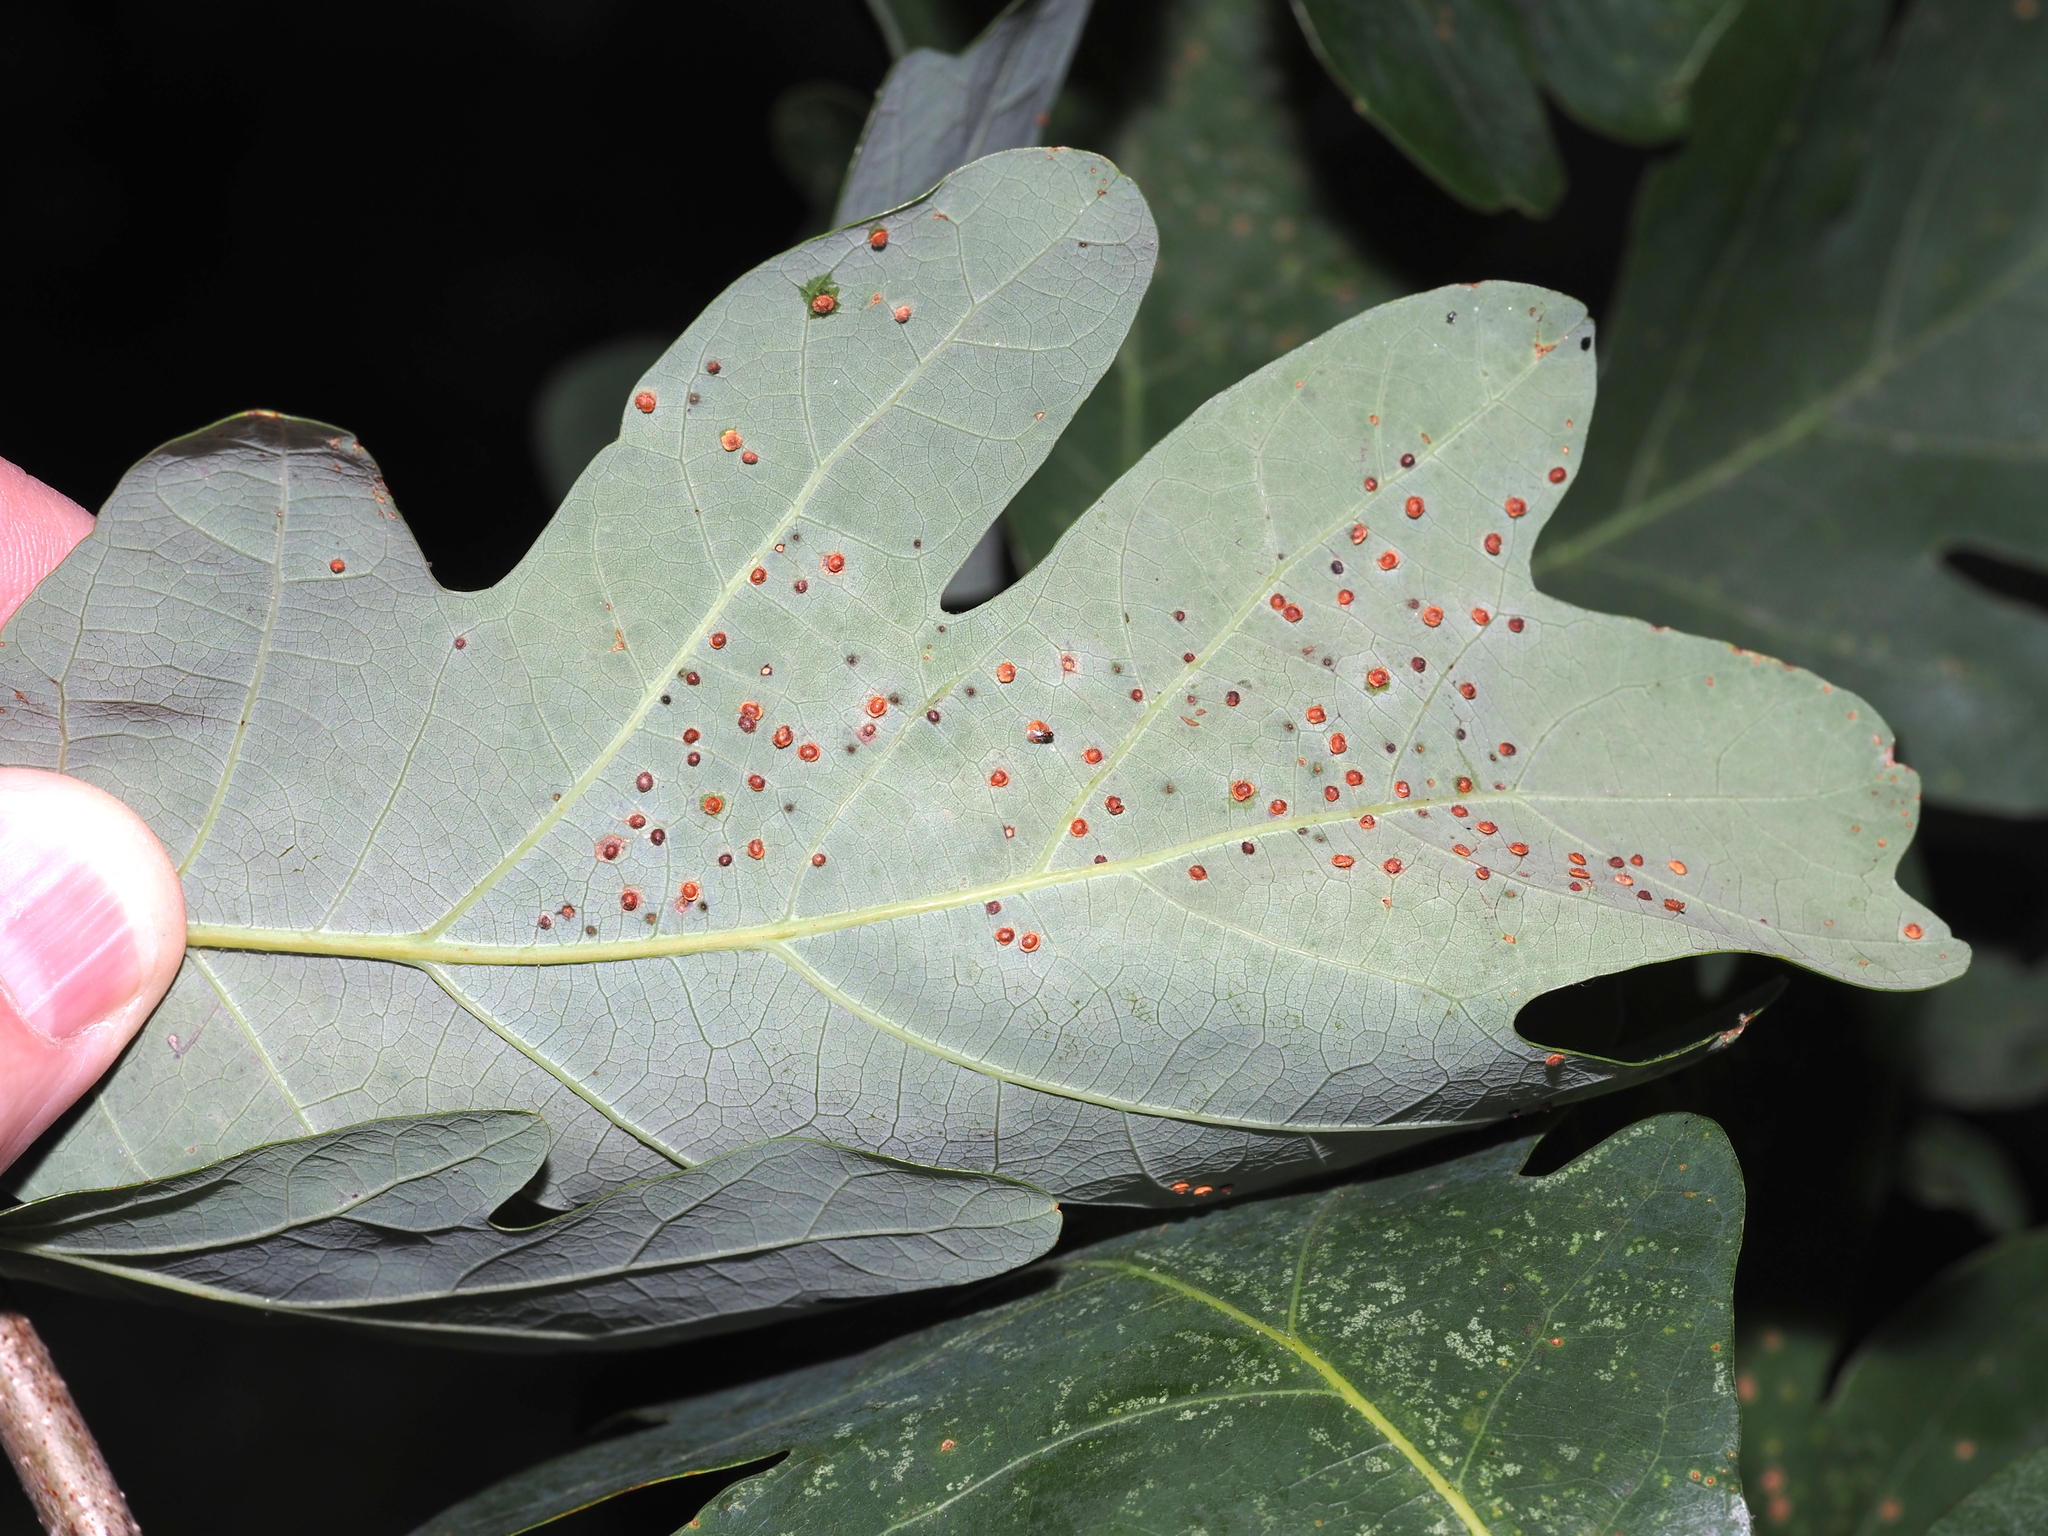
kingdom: Animalia
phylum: Arthropoda
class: Insecta
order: Hymenoptera
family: Cynipidae
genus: Neuroterus
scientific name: Neuroterus
